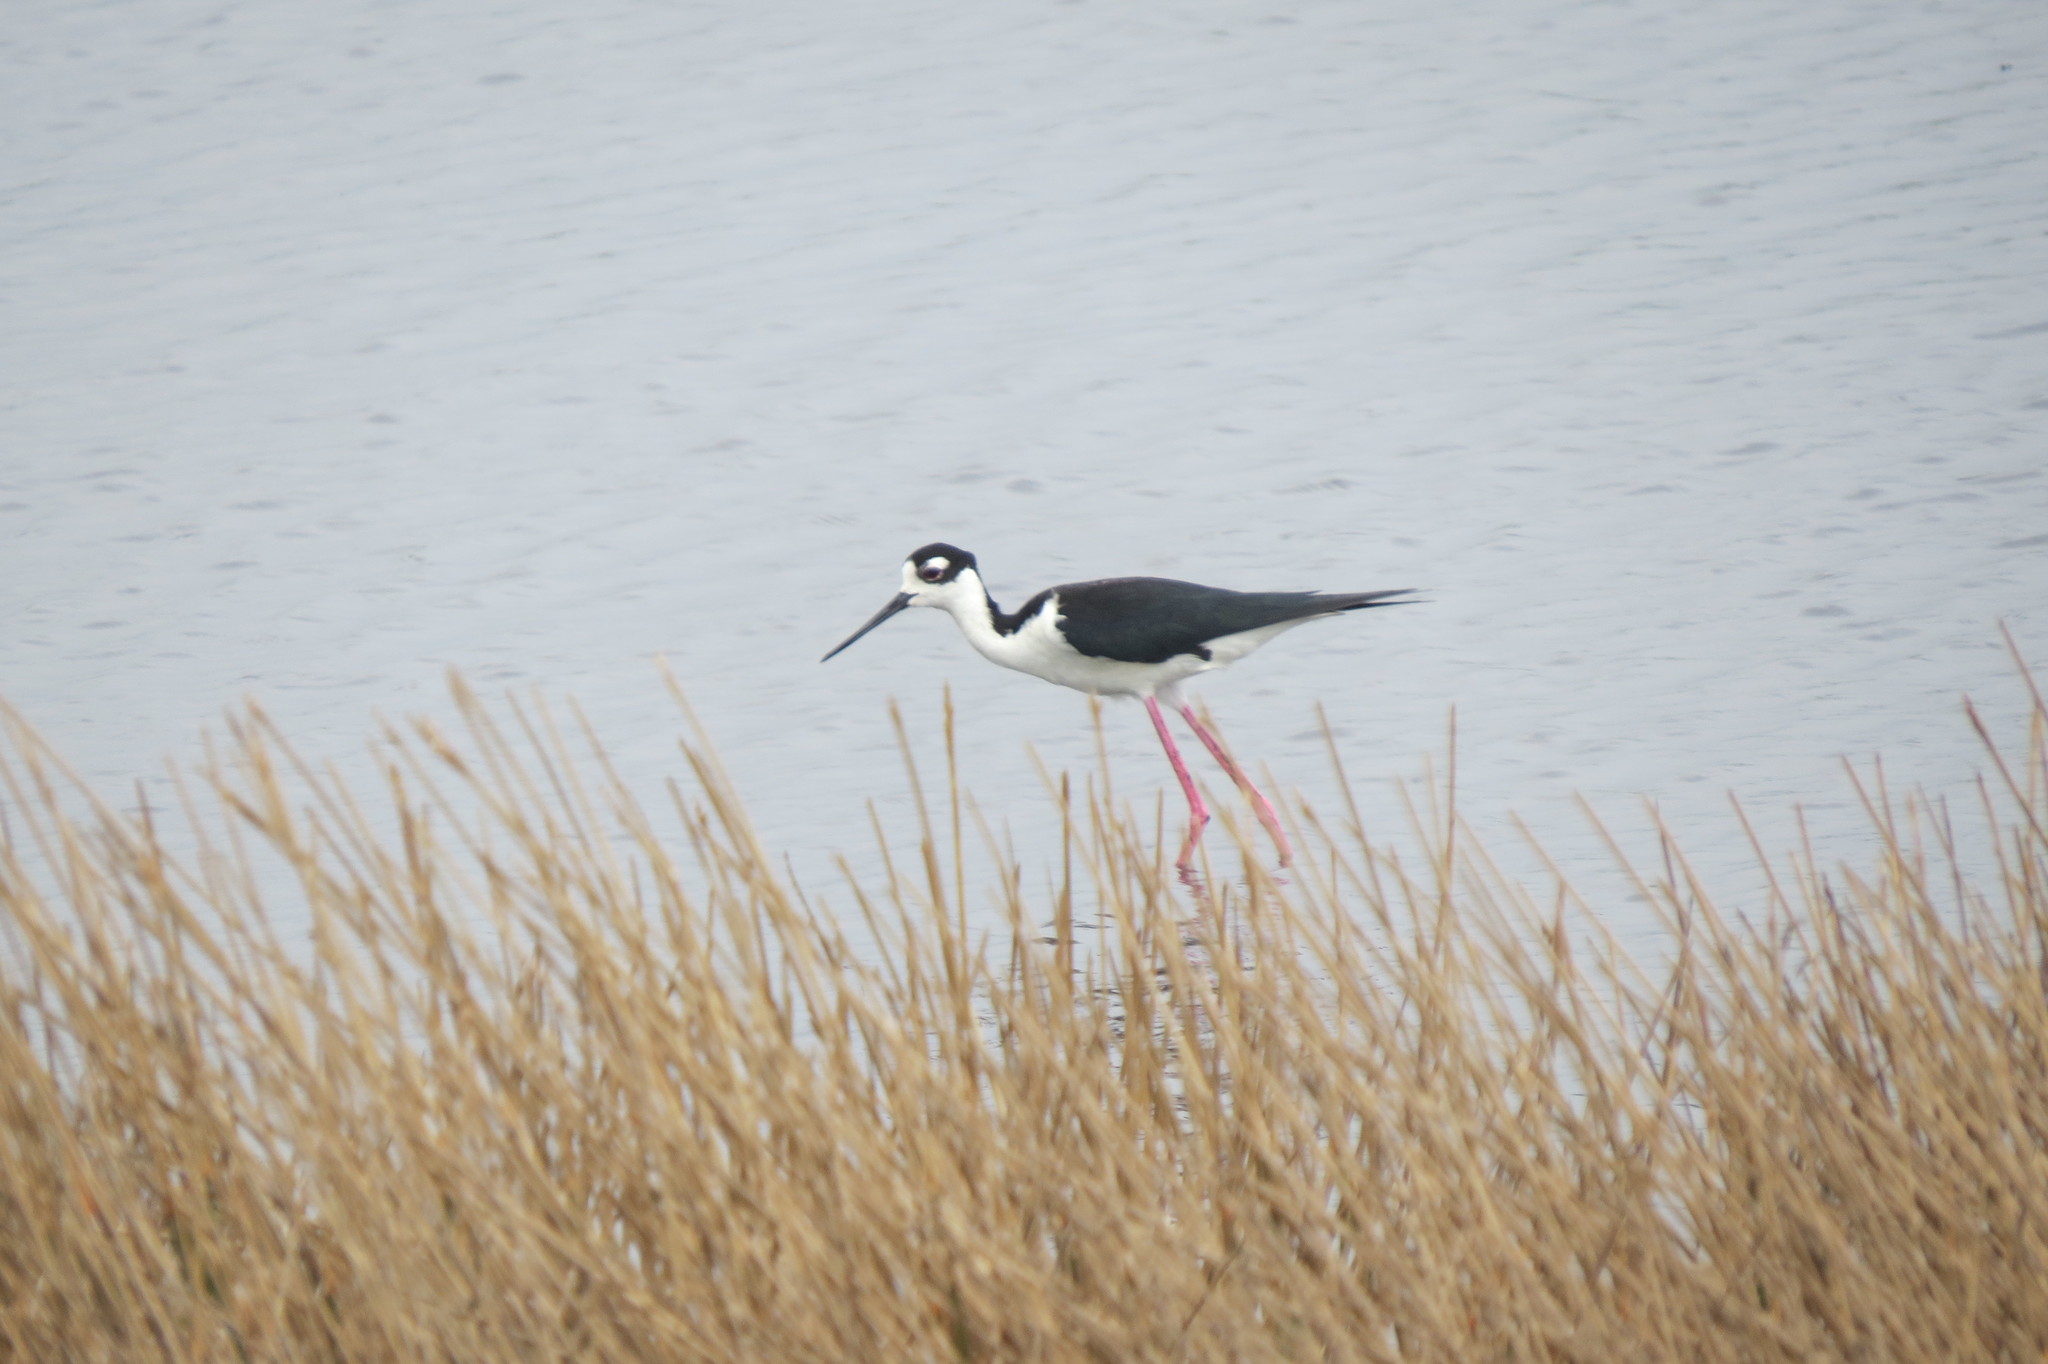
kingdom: Animalia
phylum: Chordata
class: Aves
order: Charadriiformes
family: Recurvirostridae
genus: Himantopus
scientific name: Himantopus mexicanus
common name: Black-necked stilt
